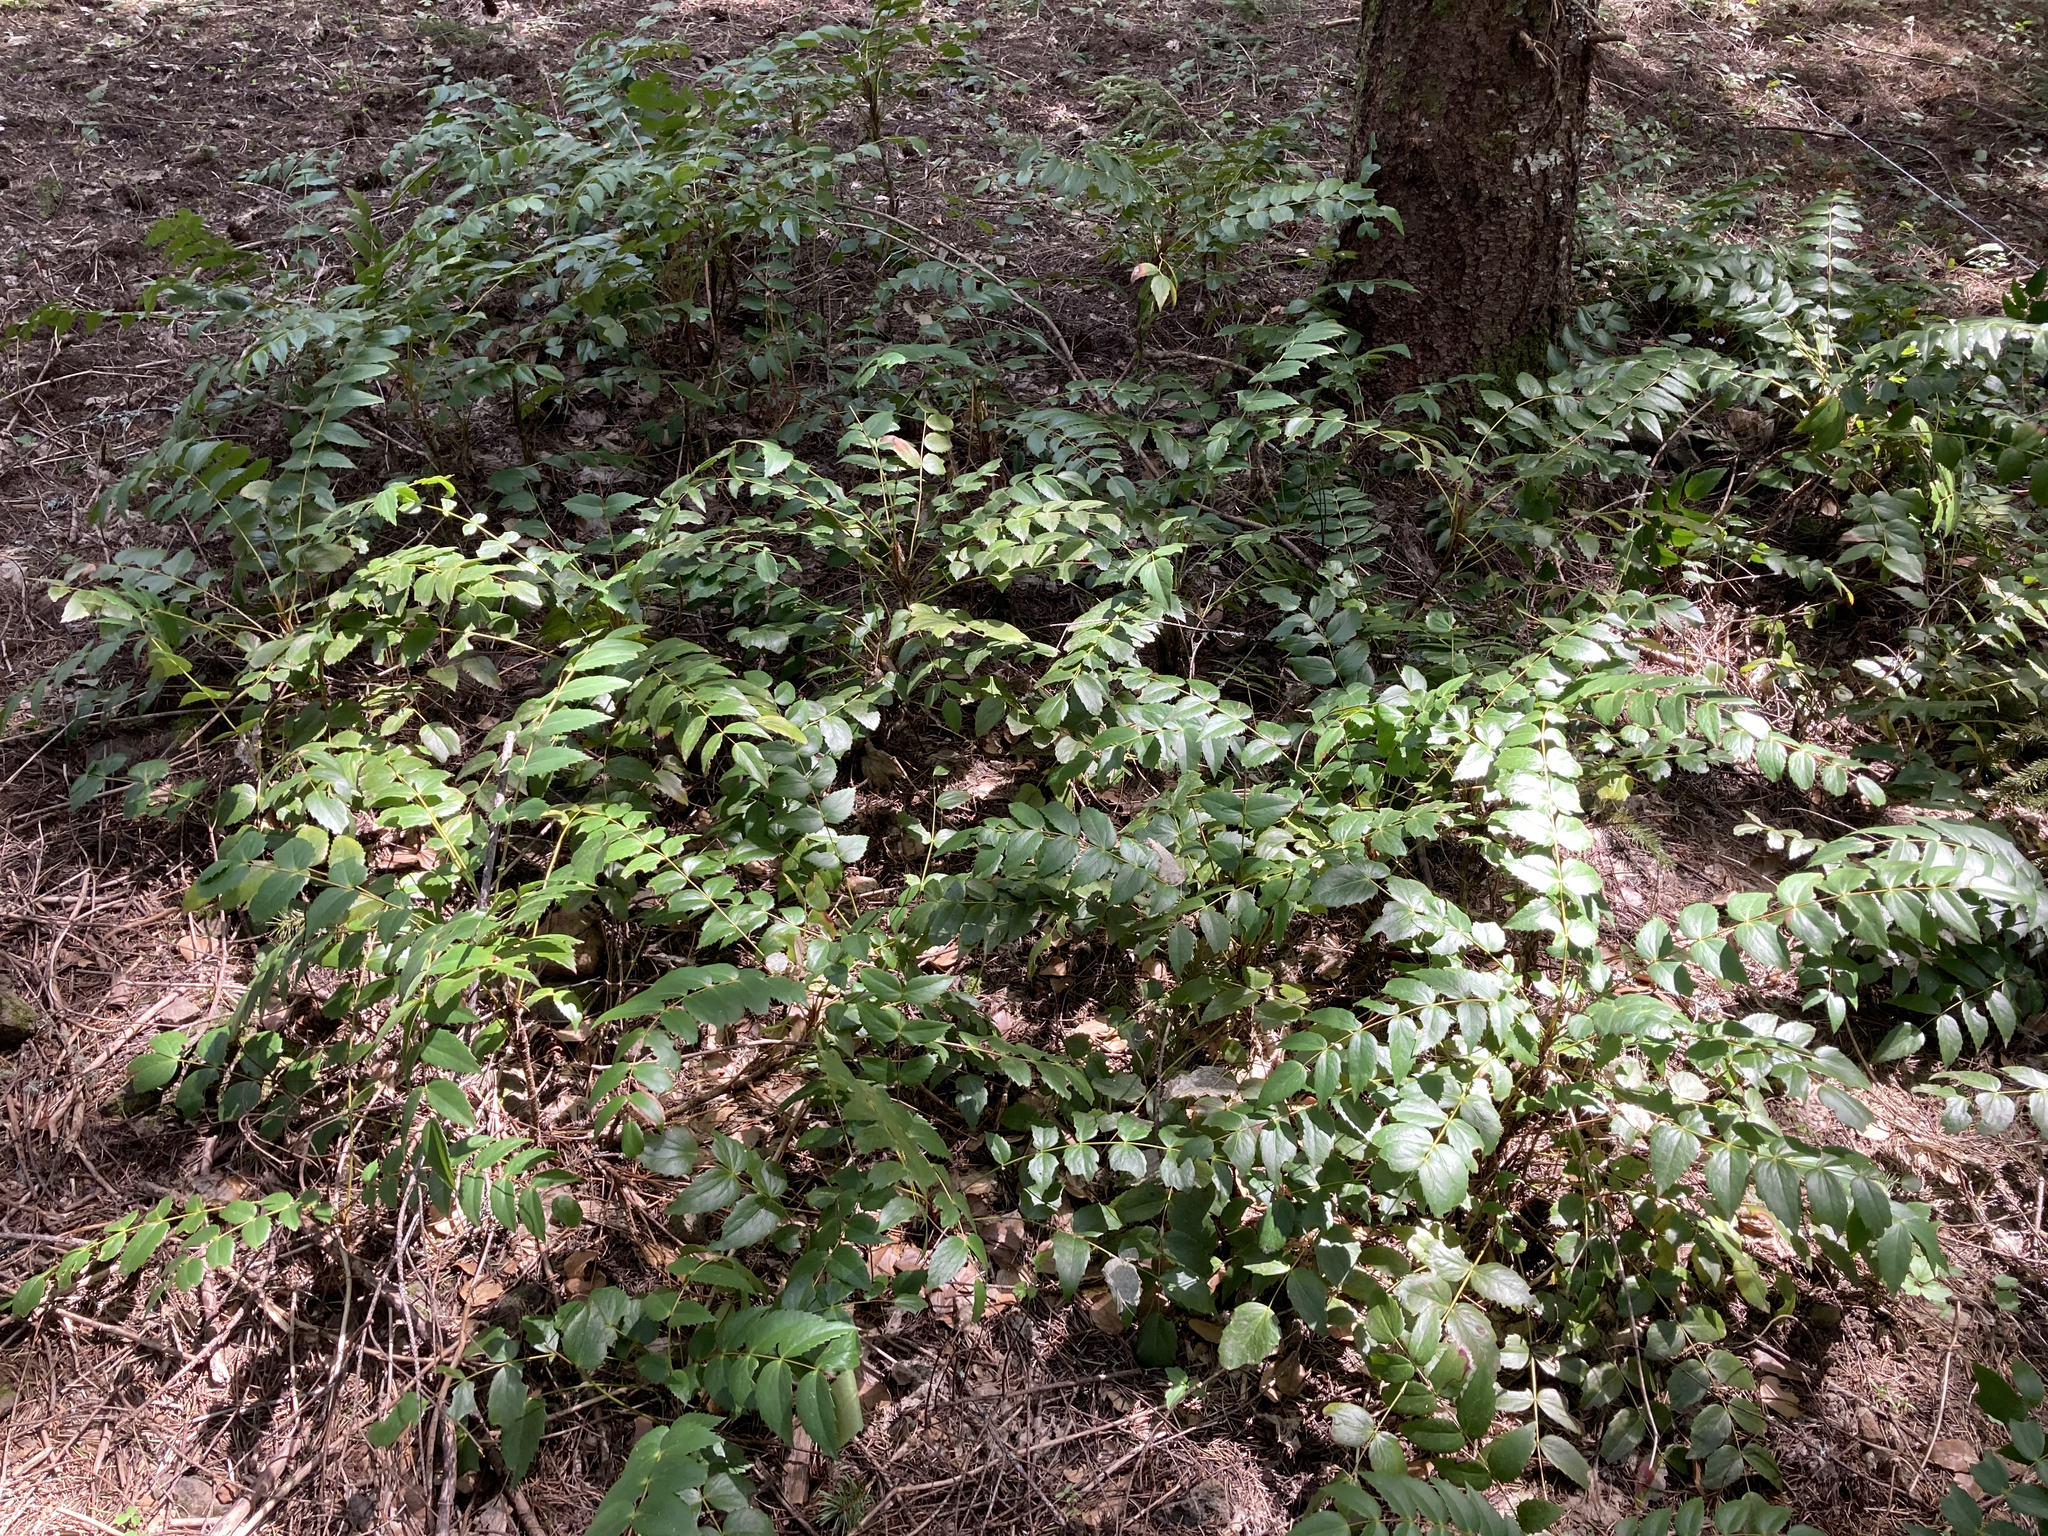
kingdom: Plantae
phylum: Tracheophyta
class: Magnoliopsida
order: Ranunculales
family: Berberidaceae
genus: Mahonia
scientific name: Mahonia nervosa
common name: Cascade oregon-grape
